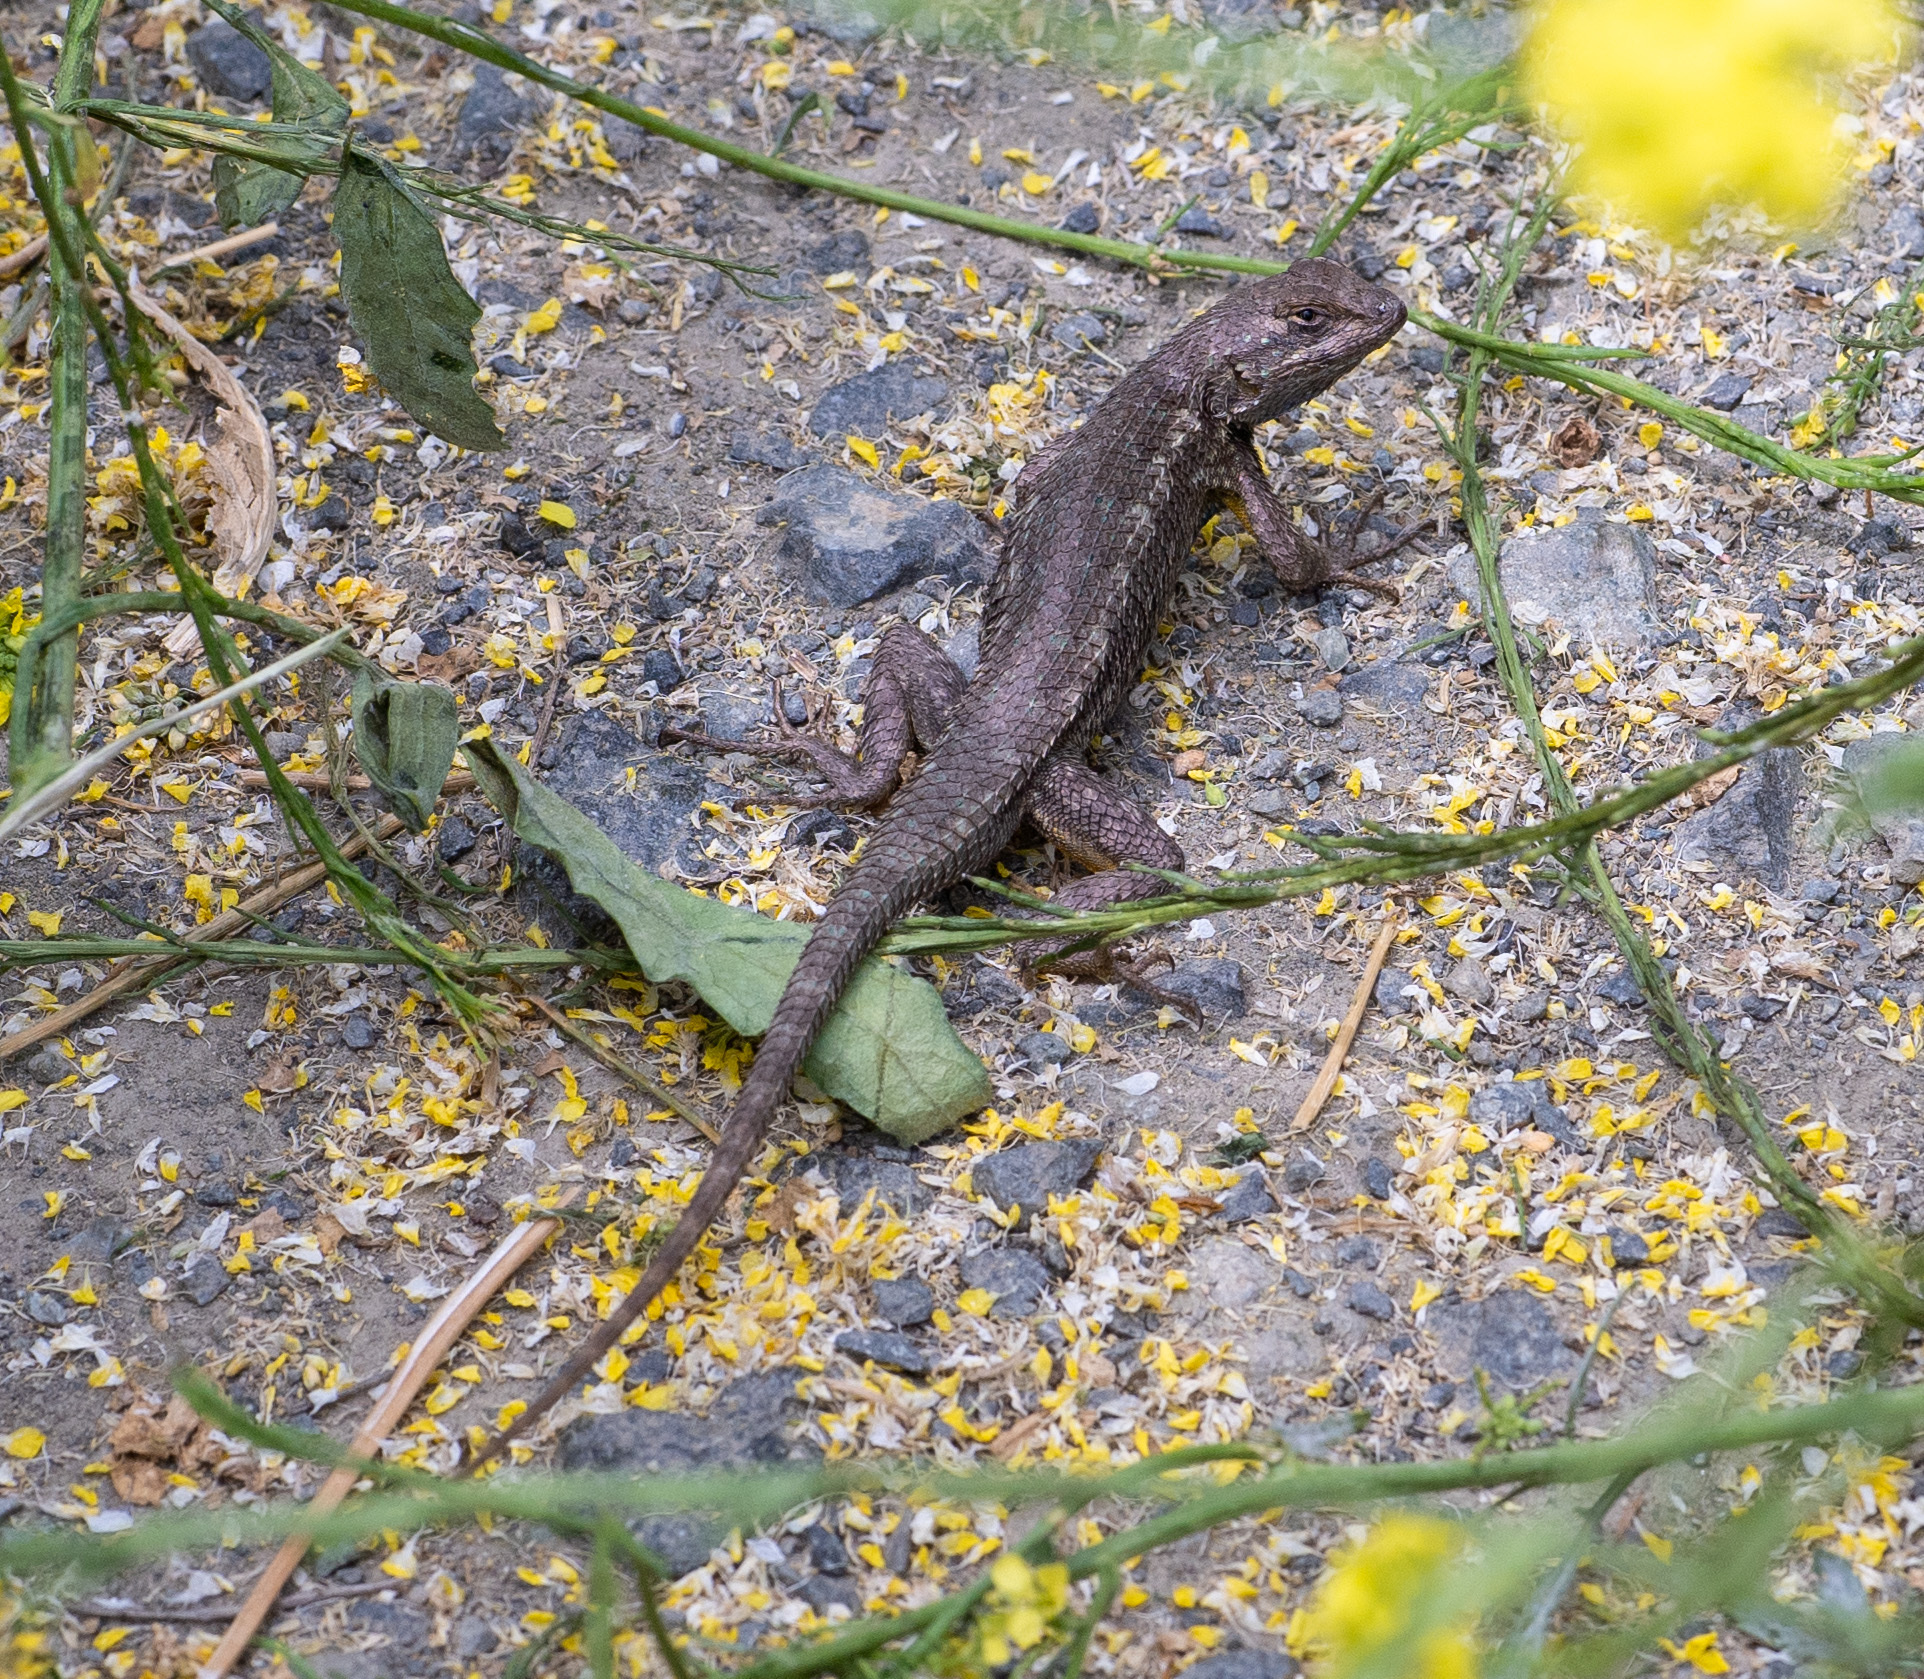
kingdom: Animalia
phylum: Chordata
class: Squamata
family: Phrynosomatidae
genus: Sceloporus
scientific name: Sceloporus occidentalis
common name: Western fence lizard
